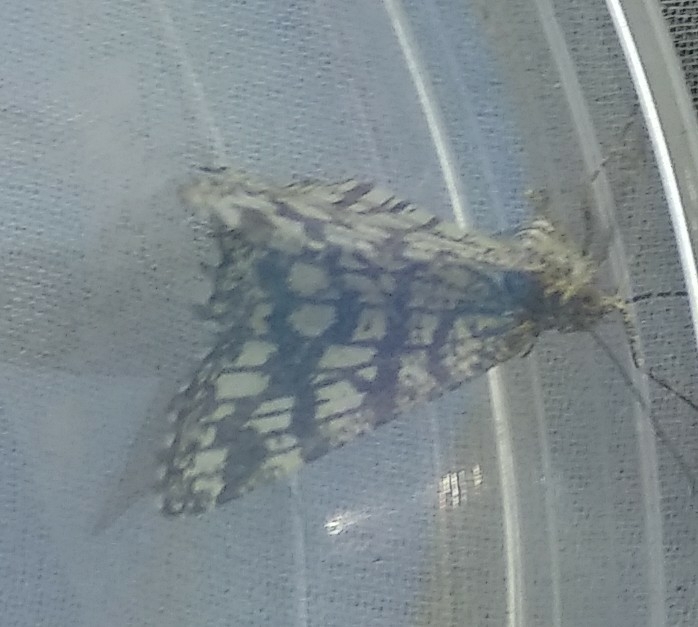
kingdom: Animalia
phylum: Arthropoda
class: Insecta
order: Lepidoptera
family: Geometridae
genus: Chiasmia
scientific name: Chiasmia clathrata
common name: Latticed heath
